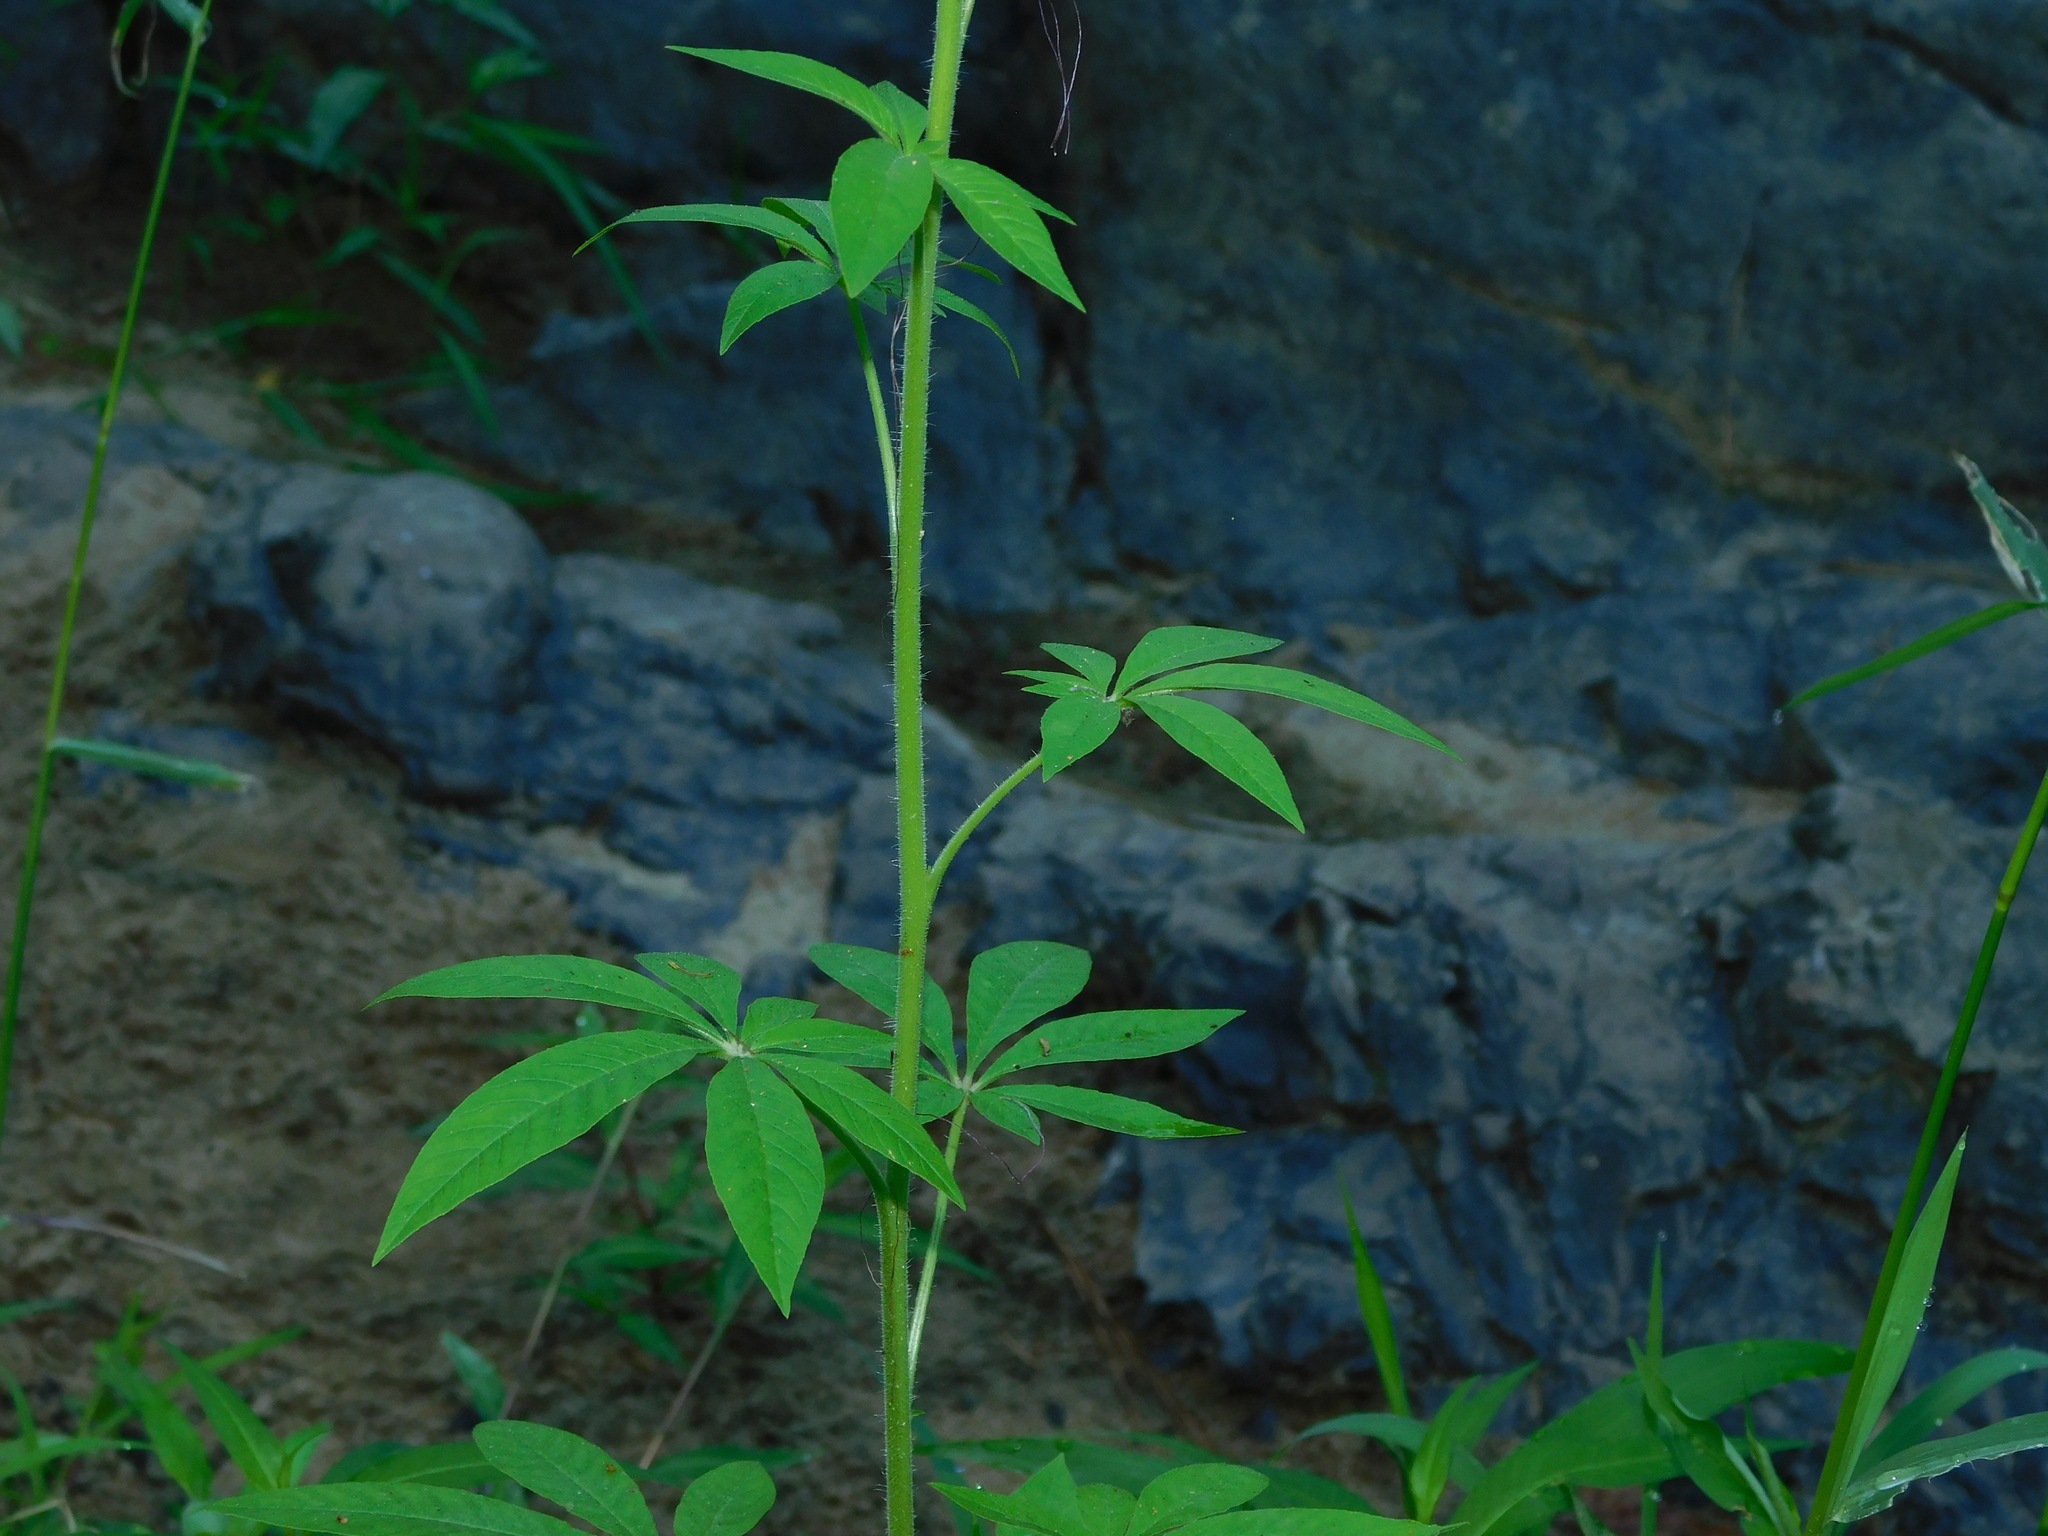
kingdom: Plantae
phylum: Tracheophyta
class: Magnoliopsida
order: Brassicales
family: Cleomaceae
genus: Tarenaya
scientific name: Tarenaya houtteana
